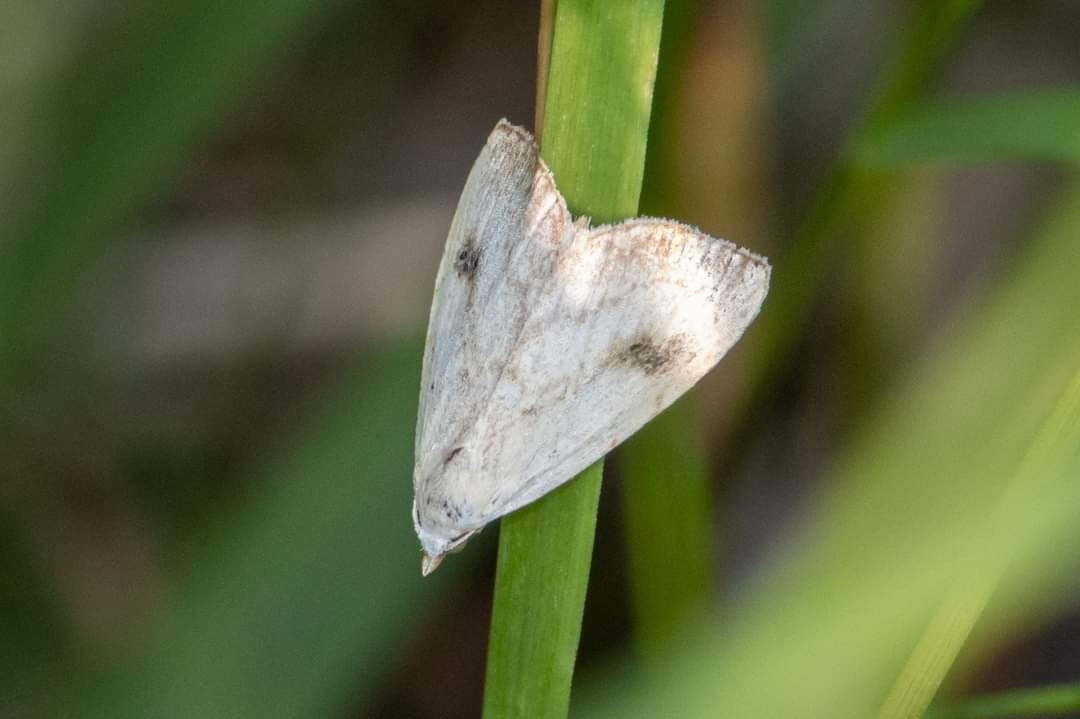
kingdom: Animalia
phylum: Arthropoda
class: Insecta
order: Lepidoptera
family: Erebidae
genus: Rivula
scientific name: Rivula sericealis
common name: Straw dot
